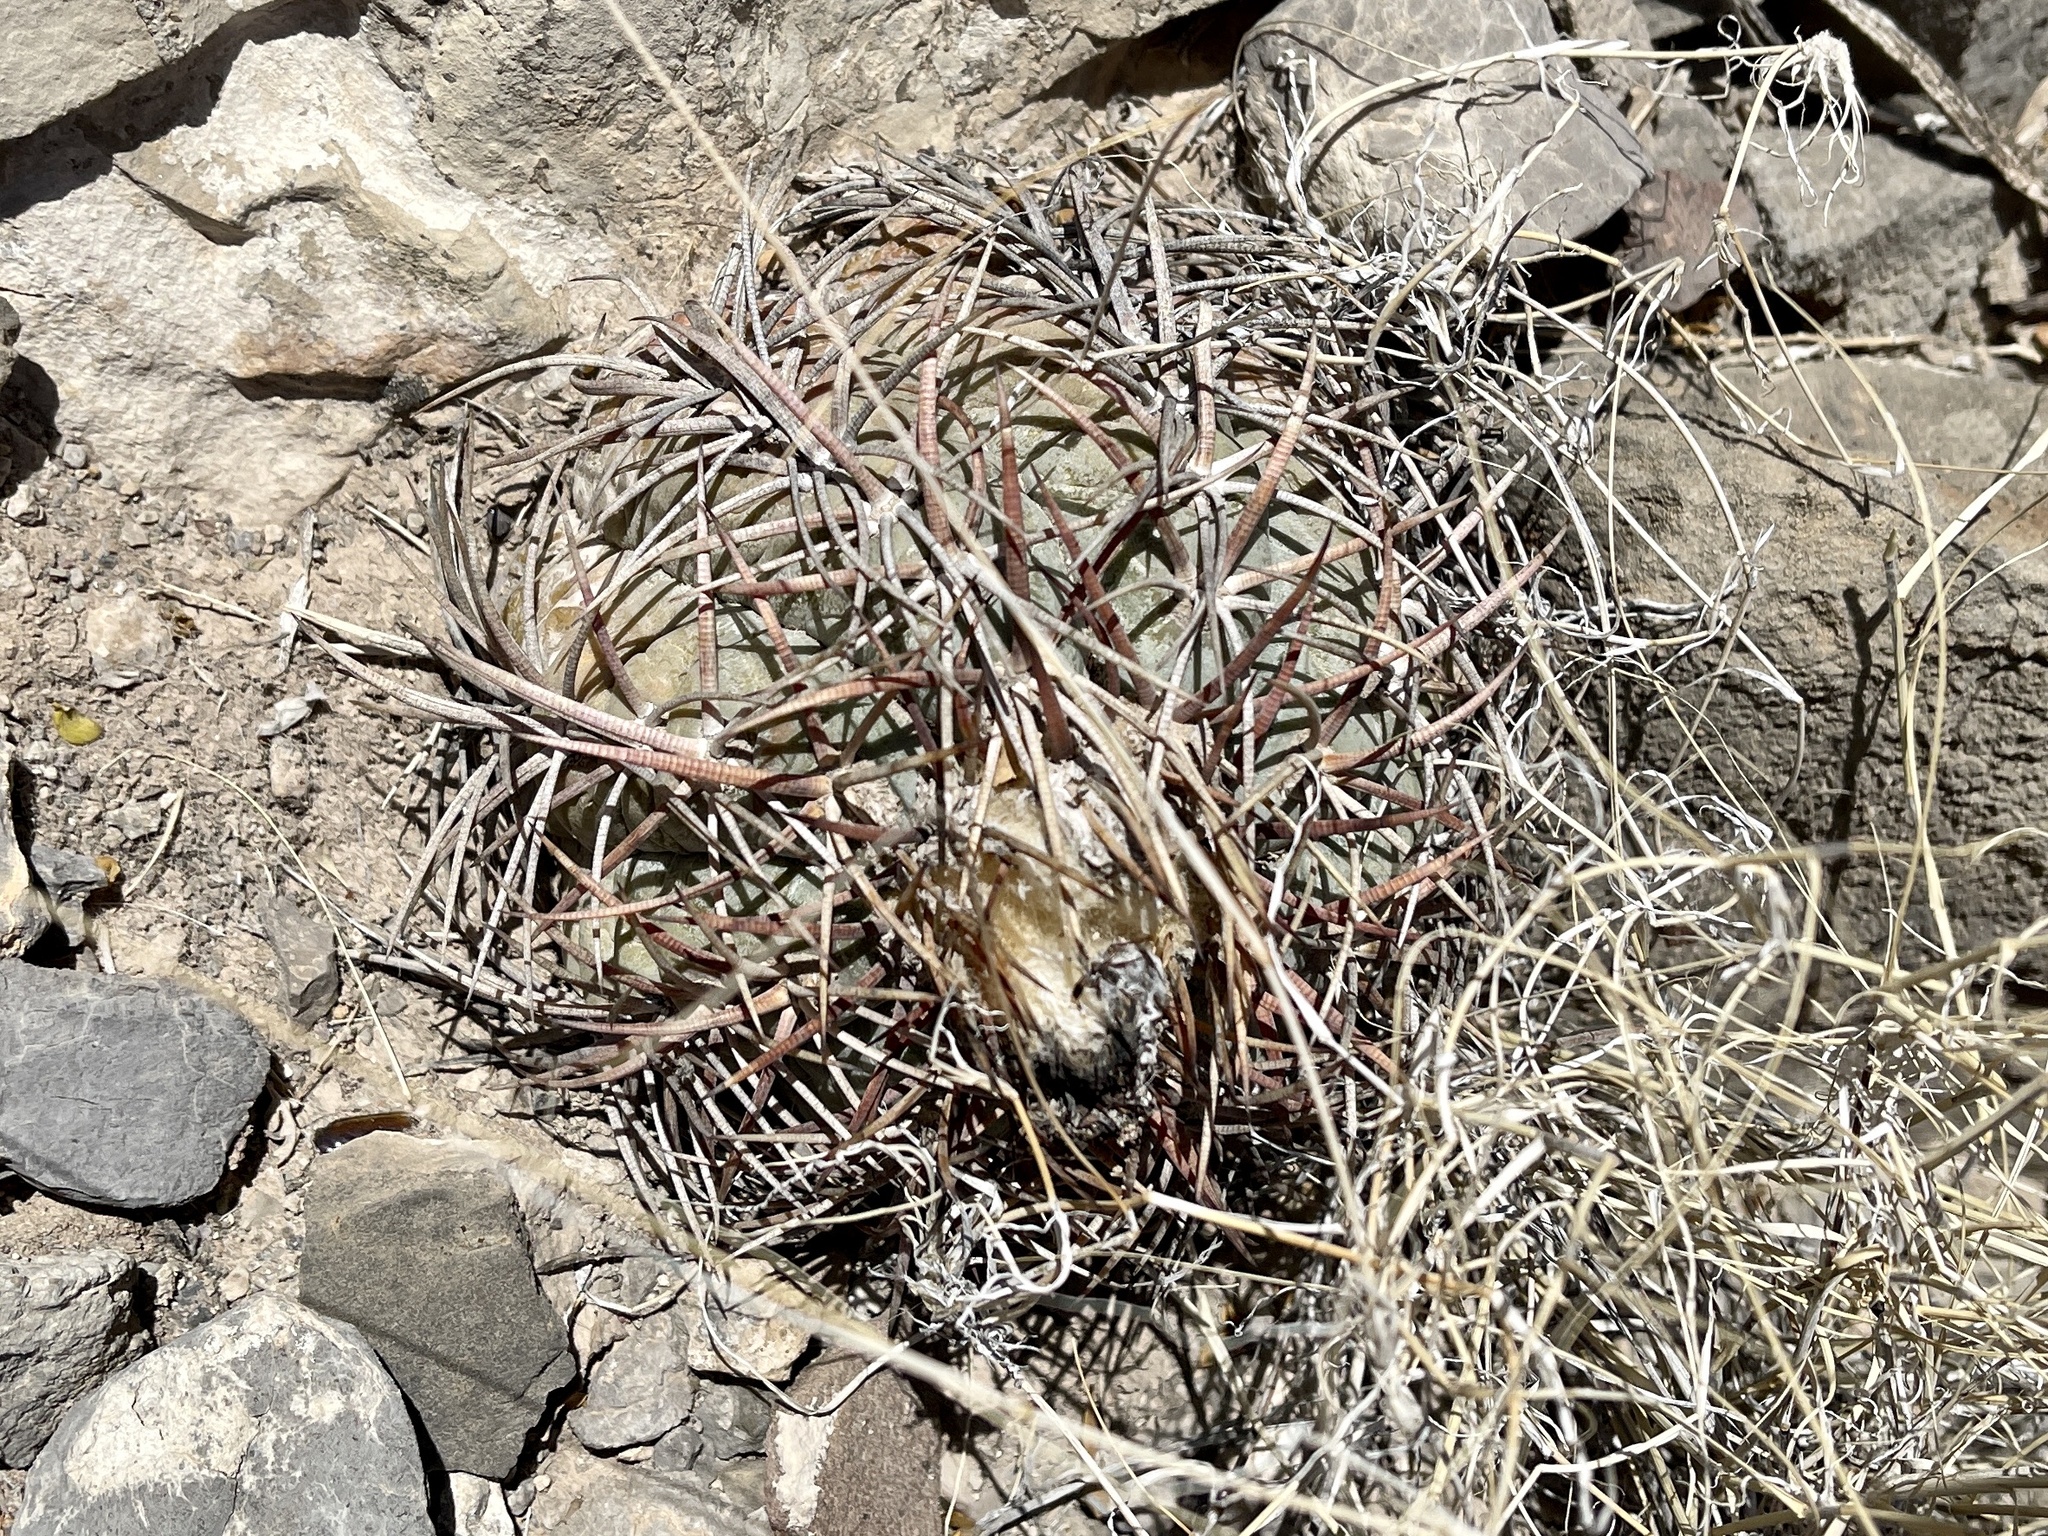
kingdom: Plantae
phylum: Tracheophyta
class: Magnoliopsida
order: Caryophyllales
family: Cactaceae
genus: Echinocactus
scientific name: Echinocactus horizonthalonius
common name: Devilshead
